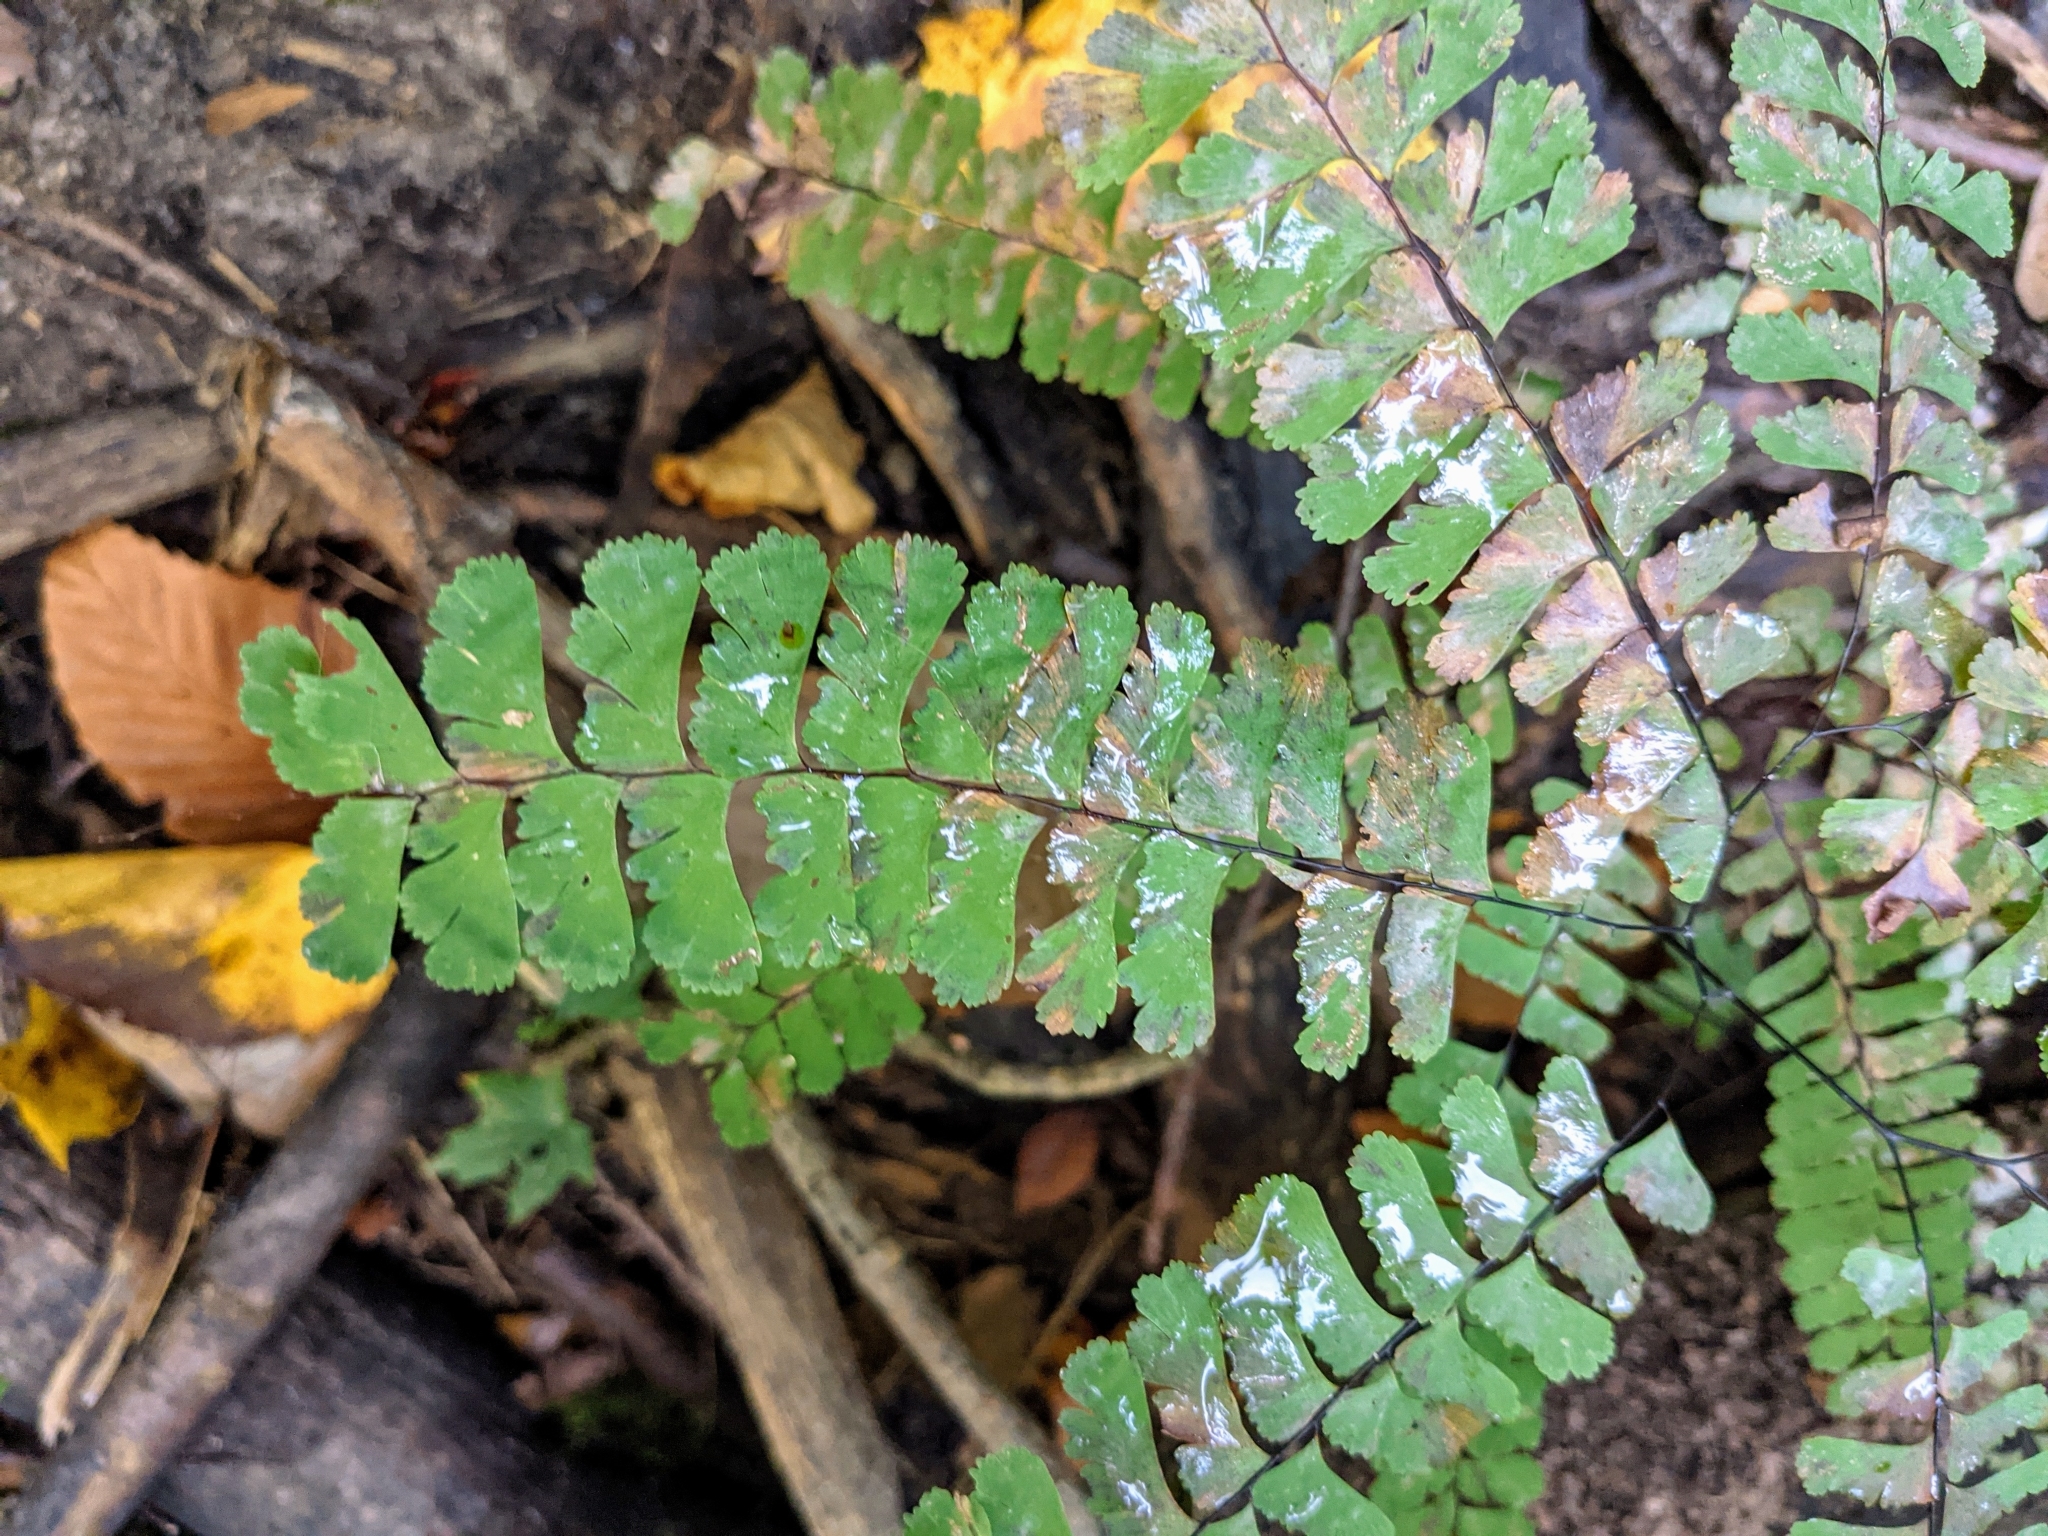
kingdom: Plantae
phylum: Tracheophyta
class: Polypodiopsida
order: Polypodiales
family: Pteridaceae
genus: Adiantum
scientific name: Adiantum pedatum
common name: Five-finger fern
